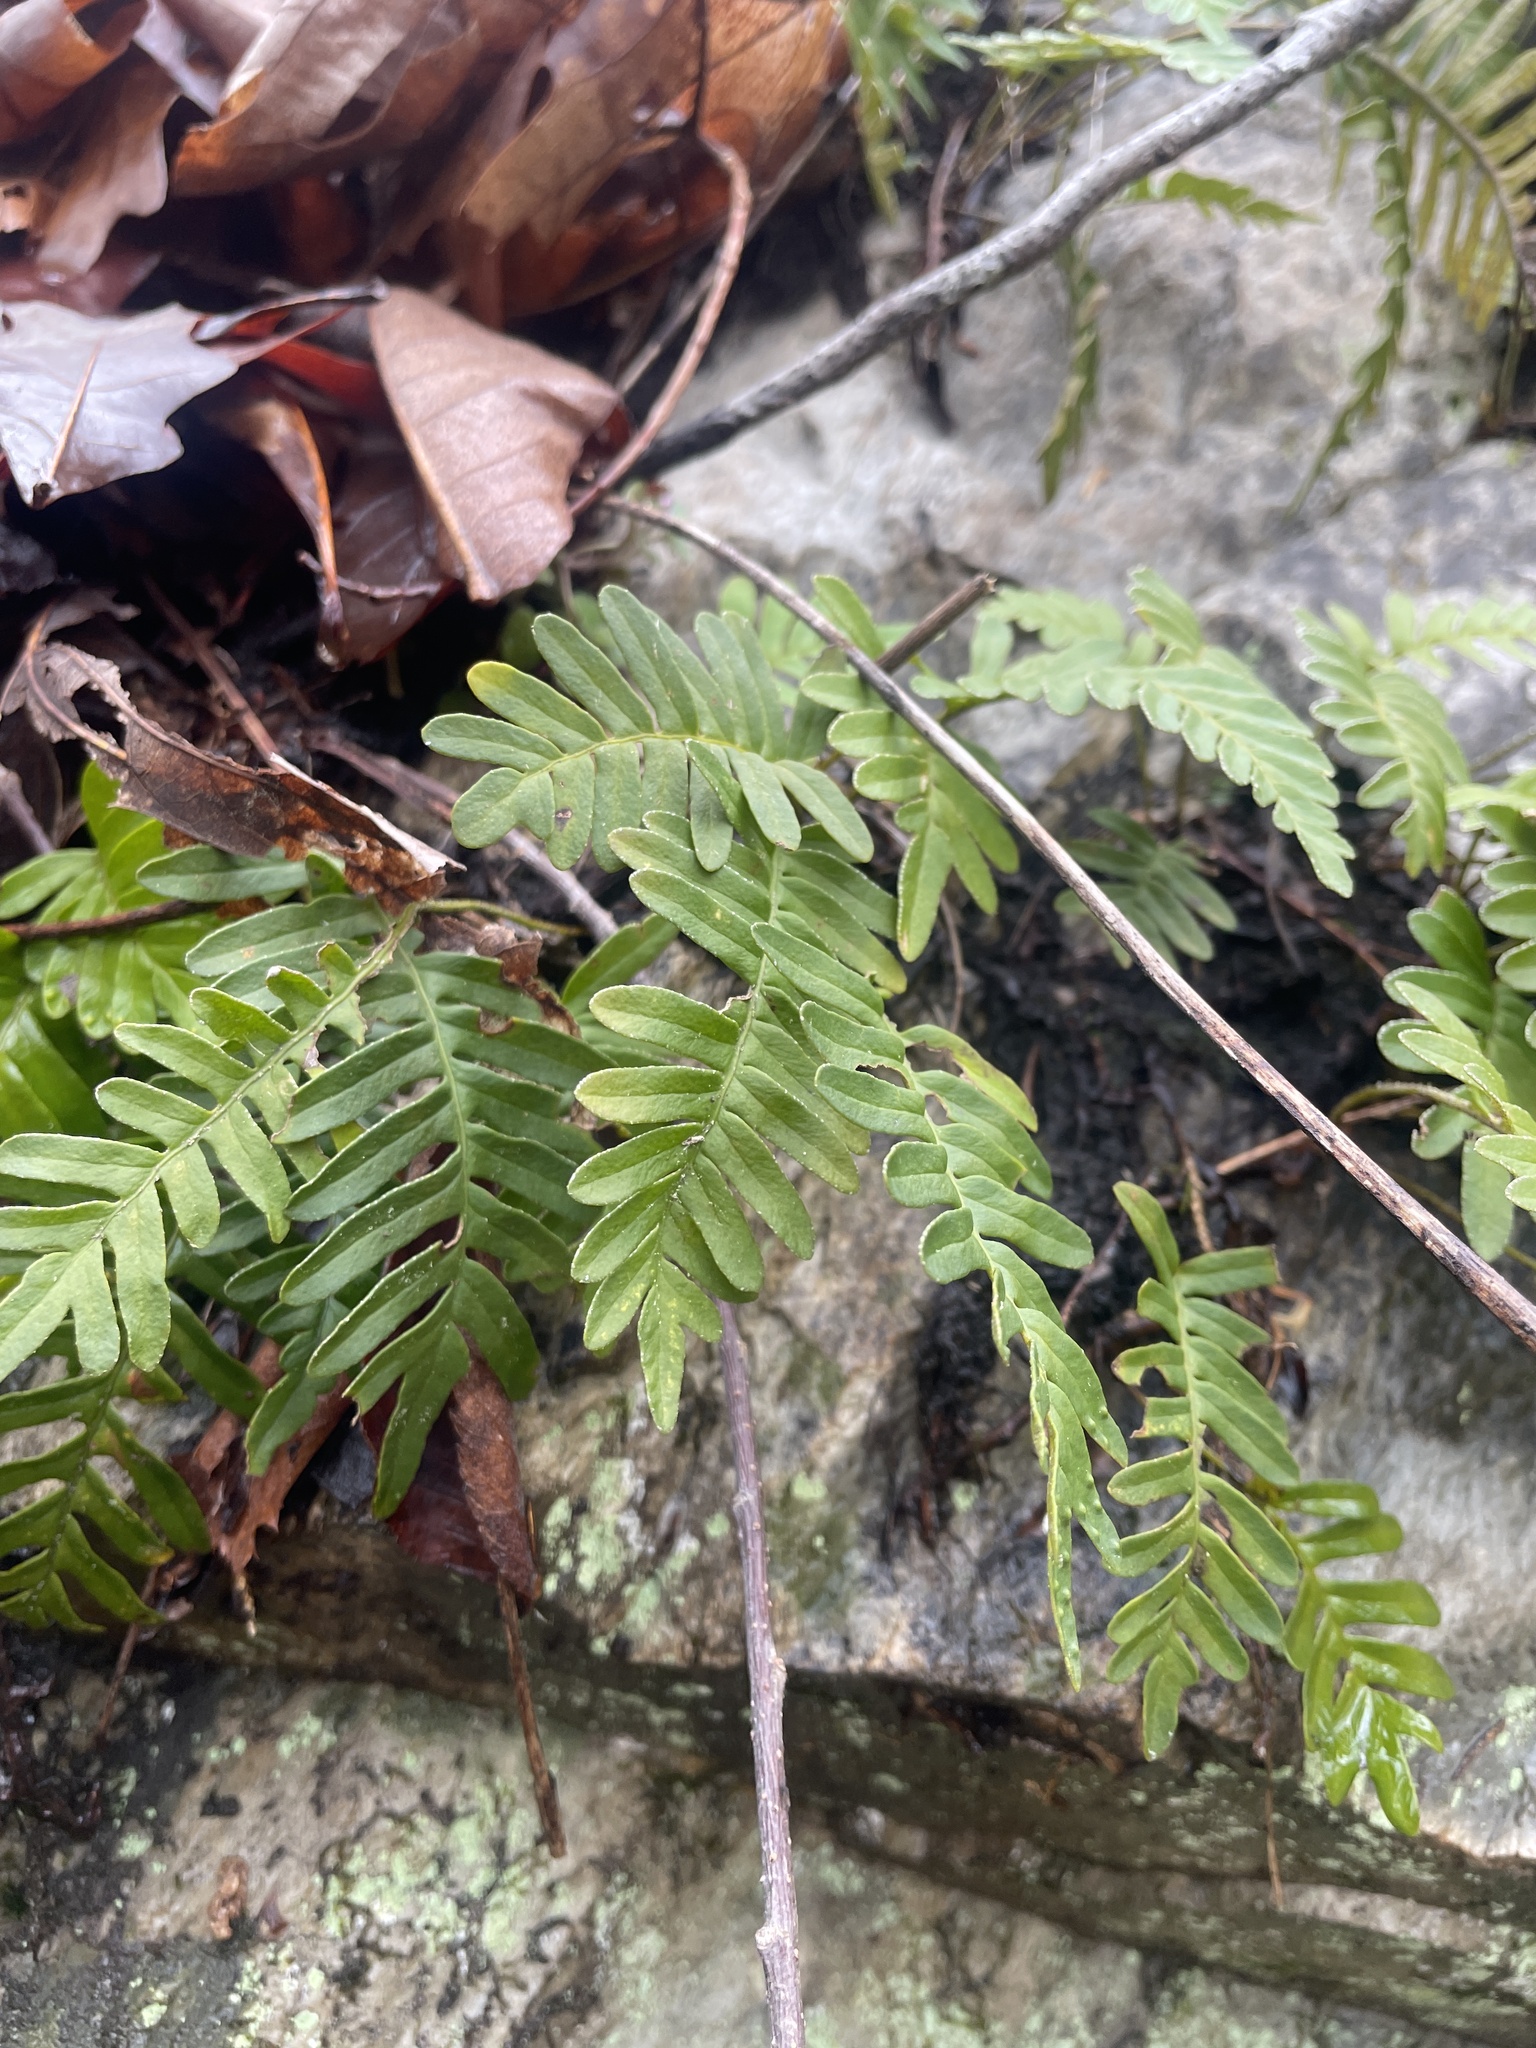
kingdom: Plantae
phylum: Tracheophyta
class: Polypodiopsida
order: Polypodiales
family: Polypodiaceae
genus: Pleopeltis
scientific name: Pleopeltis michauxiana
